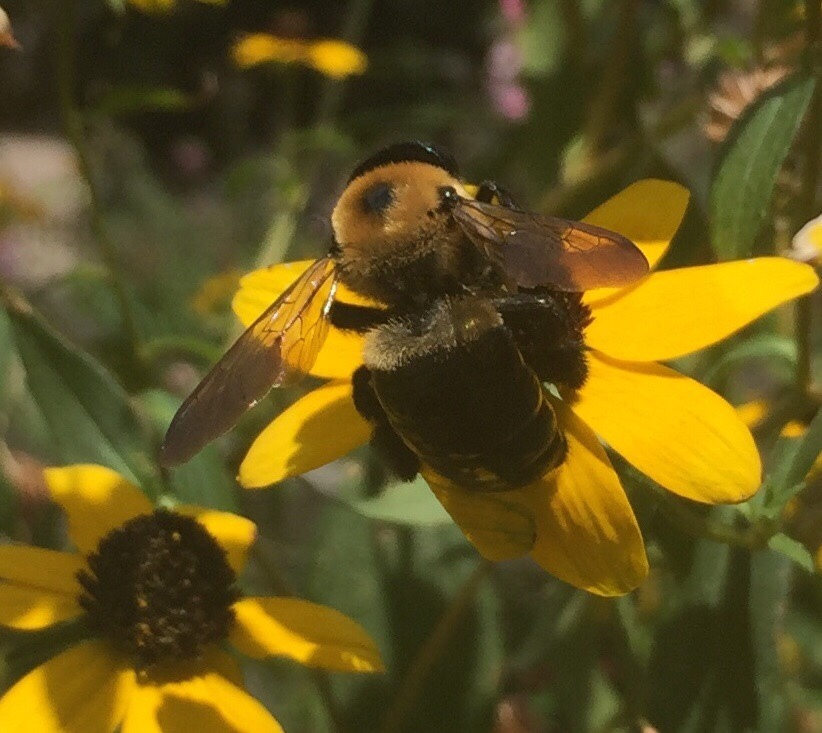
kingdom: Animalia
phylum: Arthropoda
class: Insecta
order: Hymenoptera
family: Apidae
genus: Xylocopa
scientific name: Xylocopa virginica
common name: Carpenter bee
